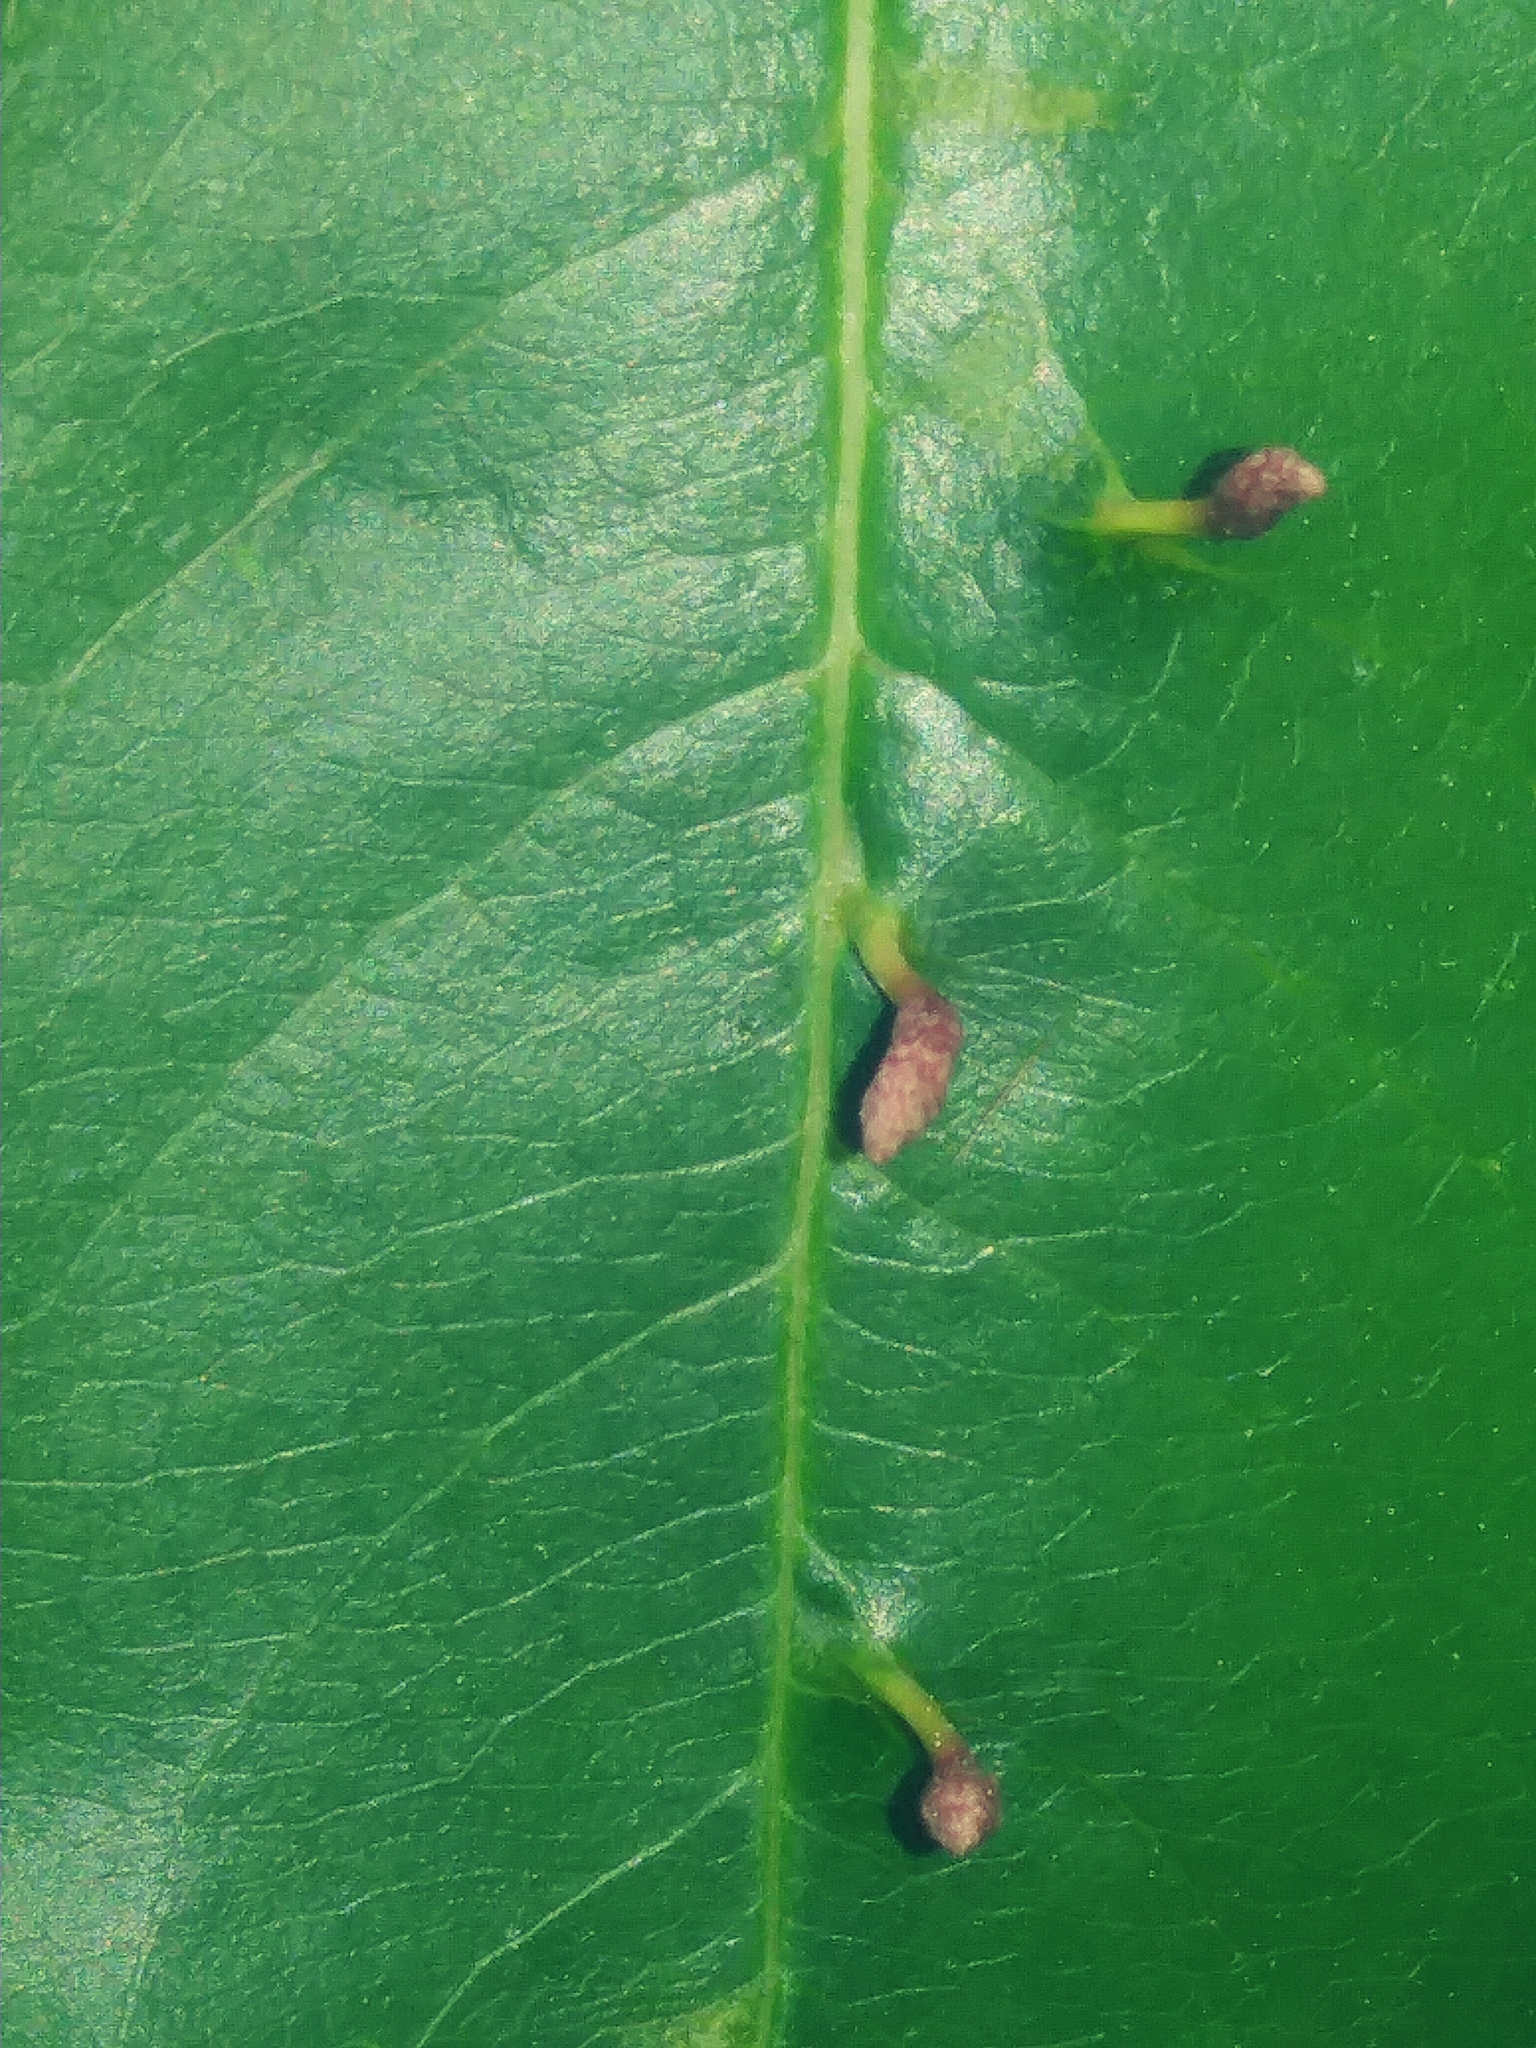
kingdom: Animalia
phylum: Arthropoda
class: Arachnida
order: Trombidiformes
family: Eriophyidae
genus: Eriophyes
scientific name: Eriophyes
